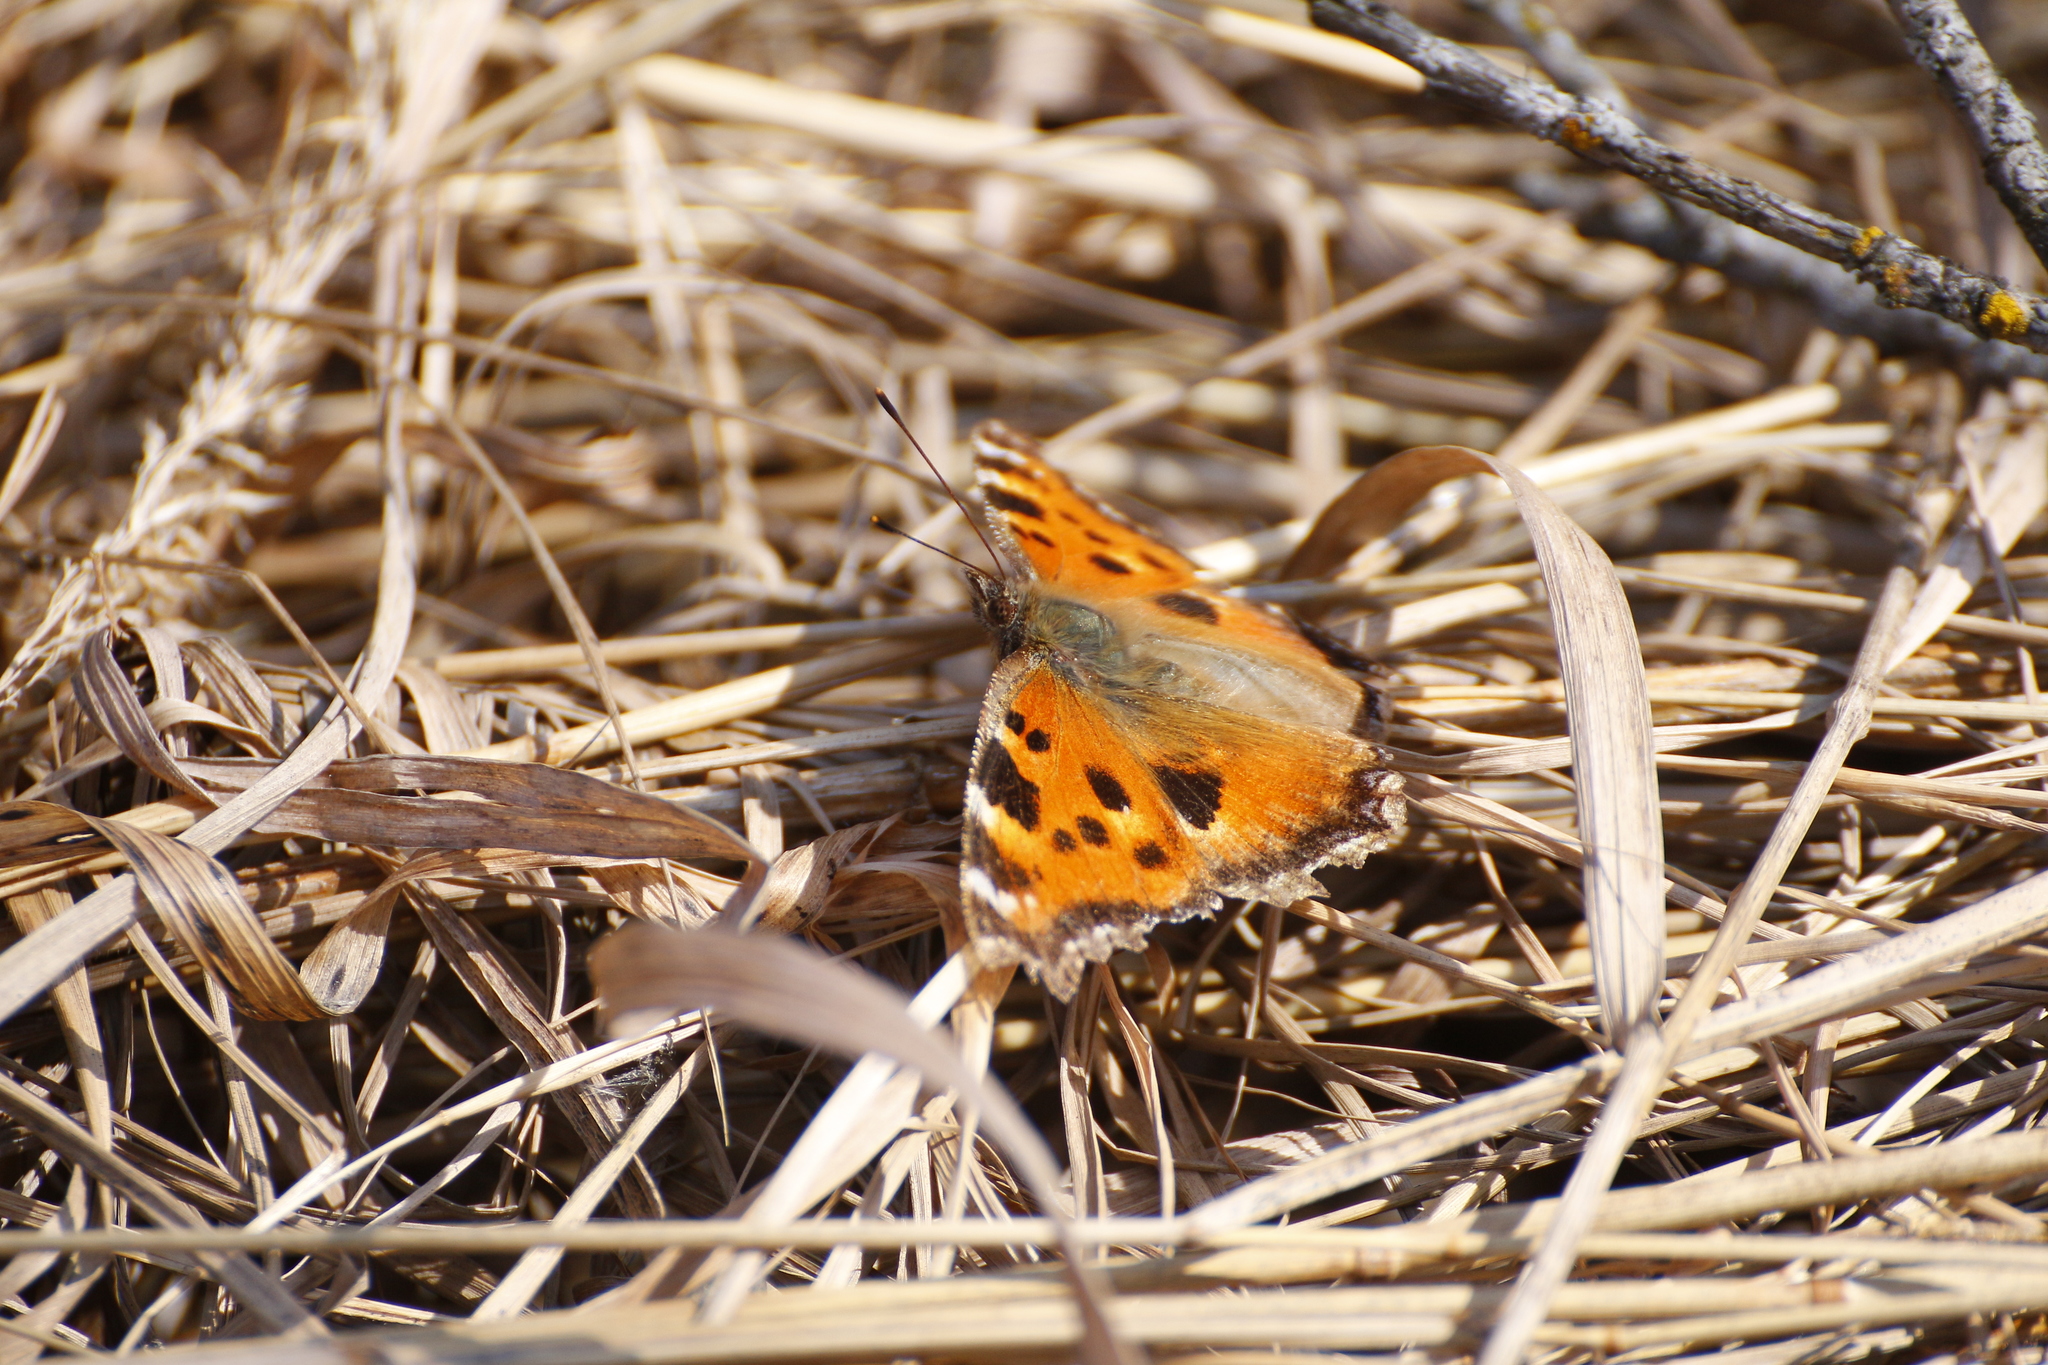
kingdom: Animalia
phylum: Arthropoda
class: Insecta
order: Lepidoptera
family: Nymphalidae
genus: Nymphalis
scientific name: Nymphalis xanthomelas
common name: Scarce tortoiseshell
